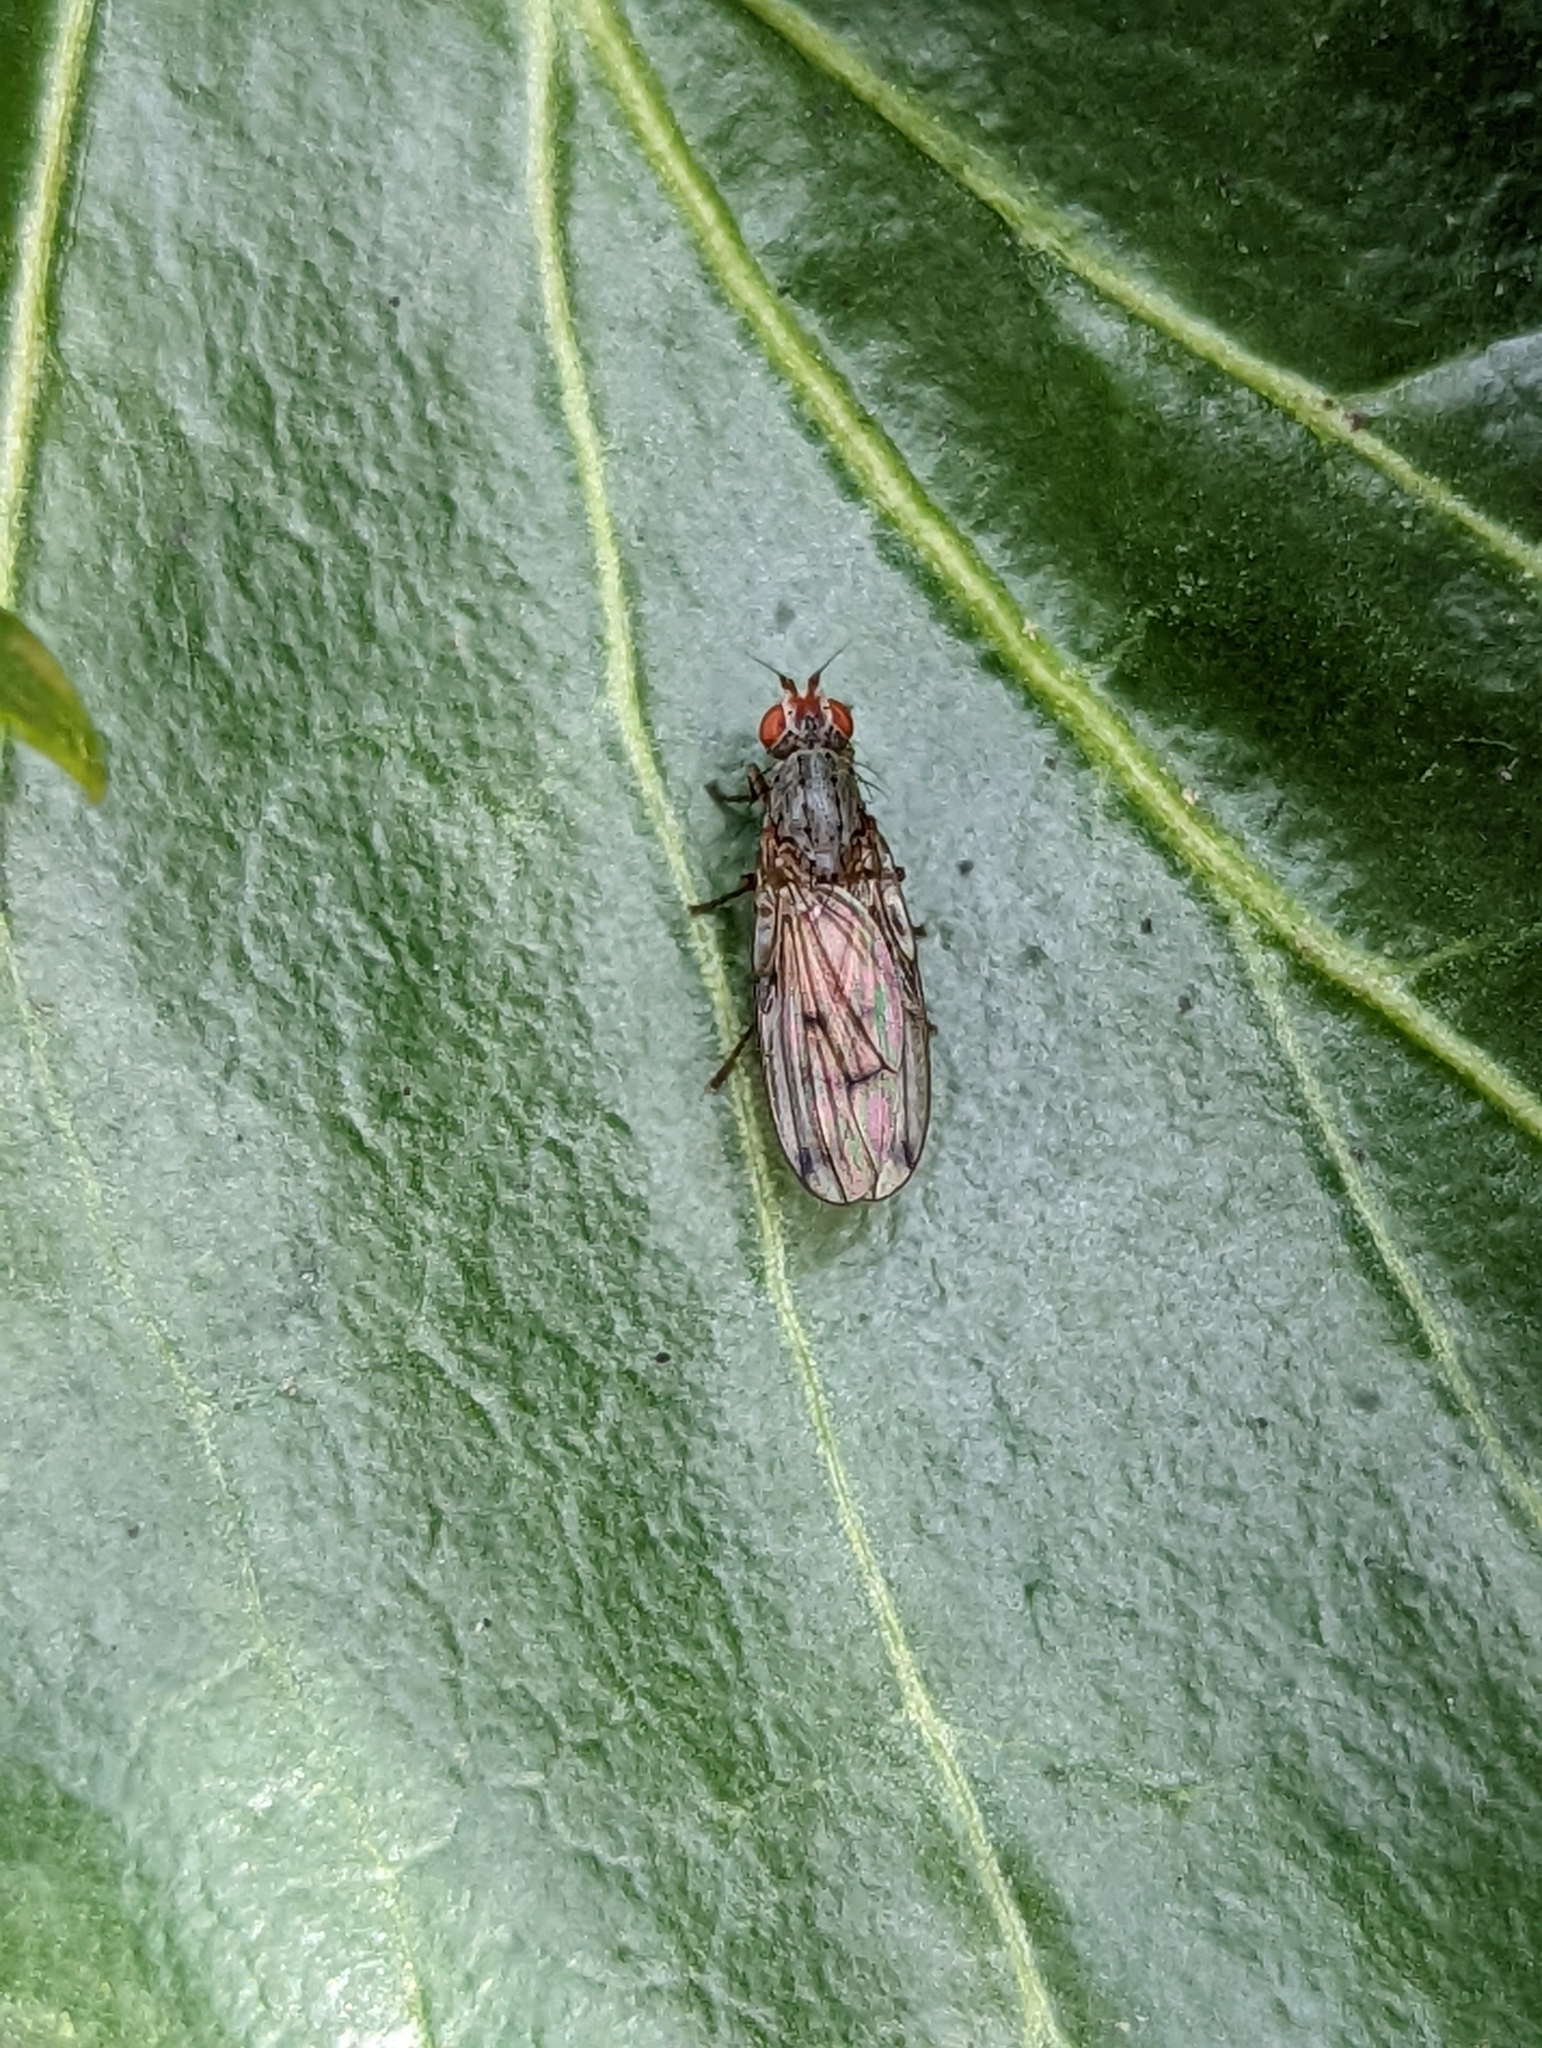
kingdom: Animalia
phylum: Arthropoda
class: Insecta
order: Diptera
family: Pallopteridae
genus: Palloptera
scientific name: Palloptera scutellata
